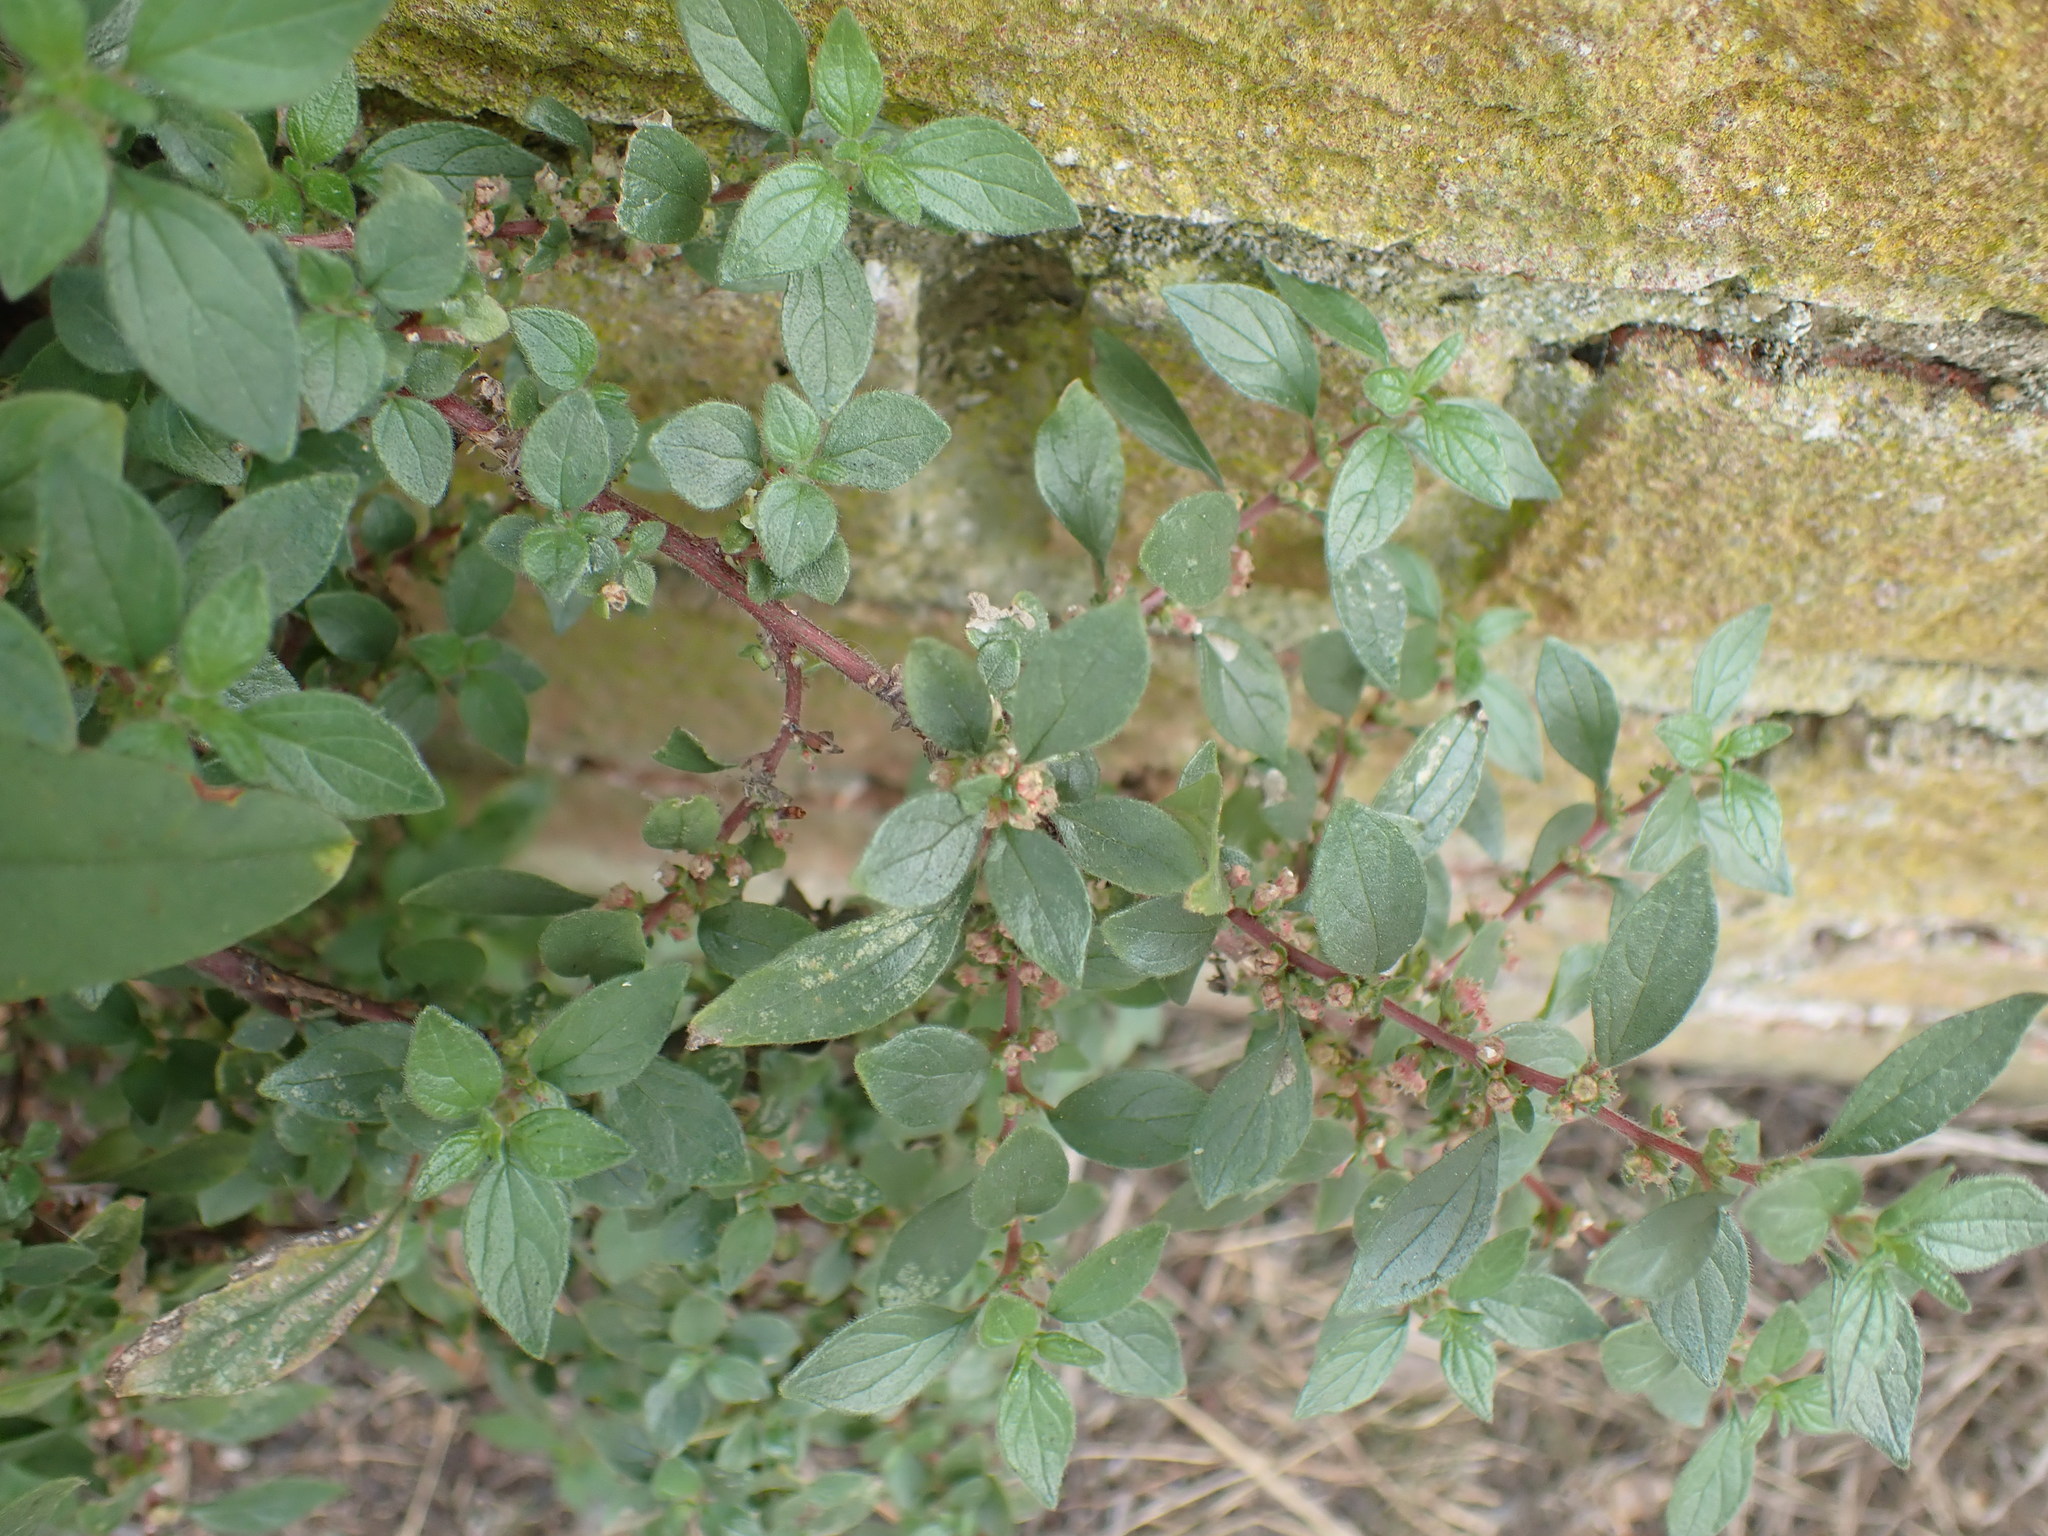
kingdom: Plantae
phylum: Tracheophyta
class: Magnoliopsida
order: Rosales
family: Urticaceae
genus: Parietaria
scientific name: Parietaria judaica
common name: Pellitory-of-the-wall
